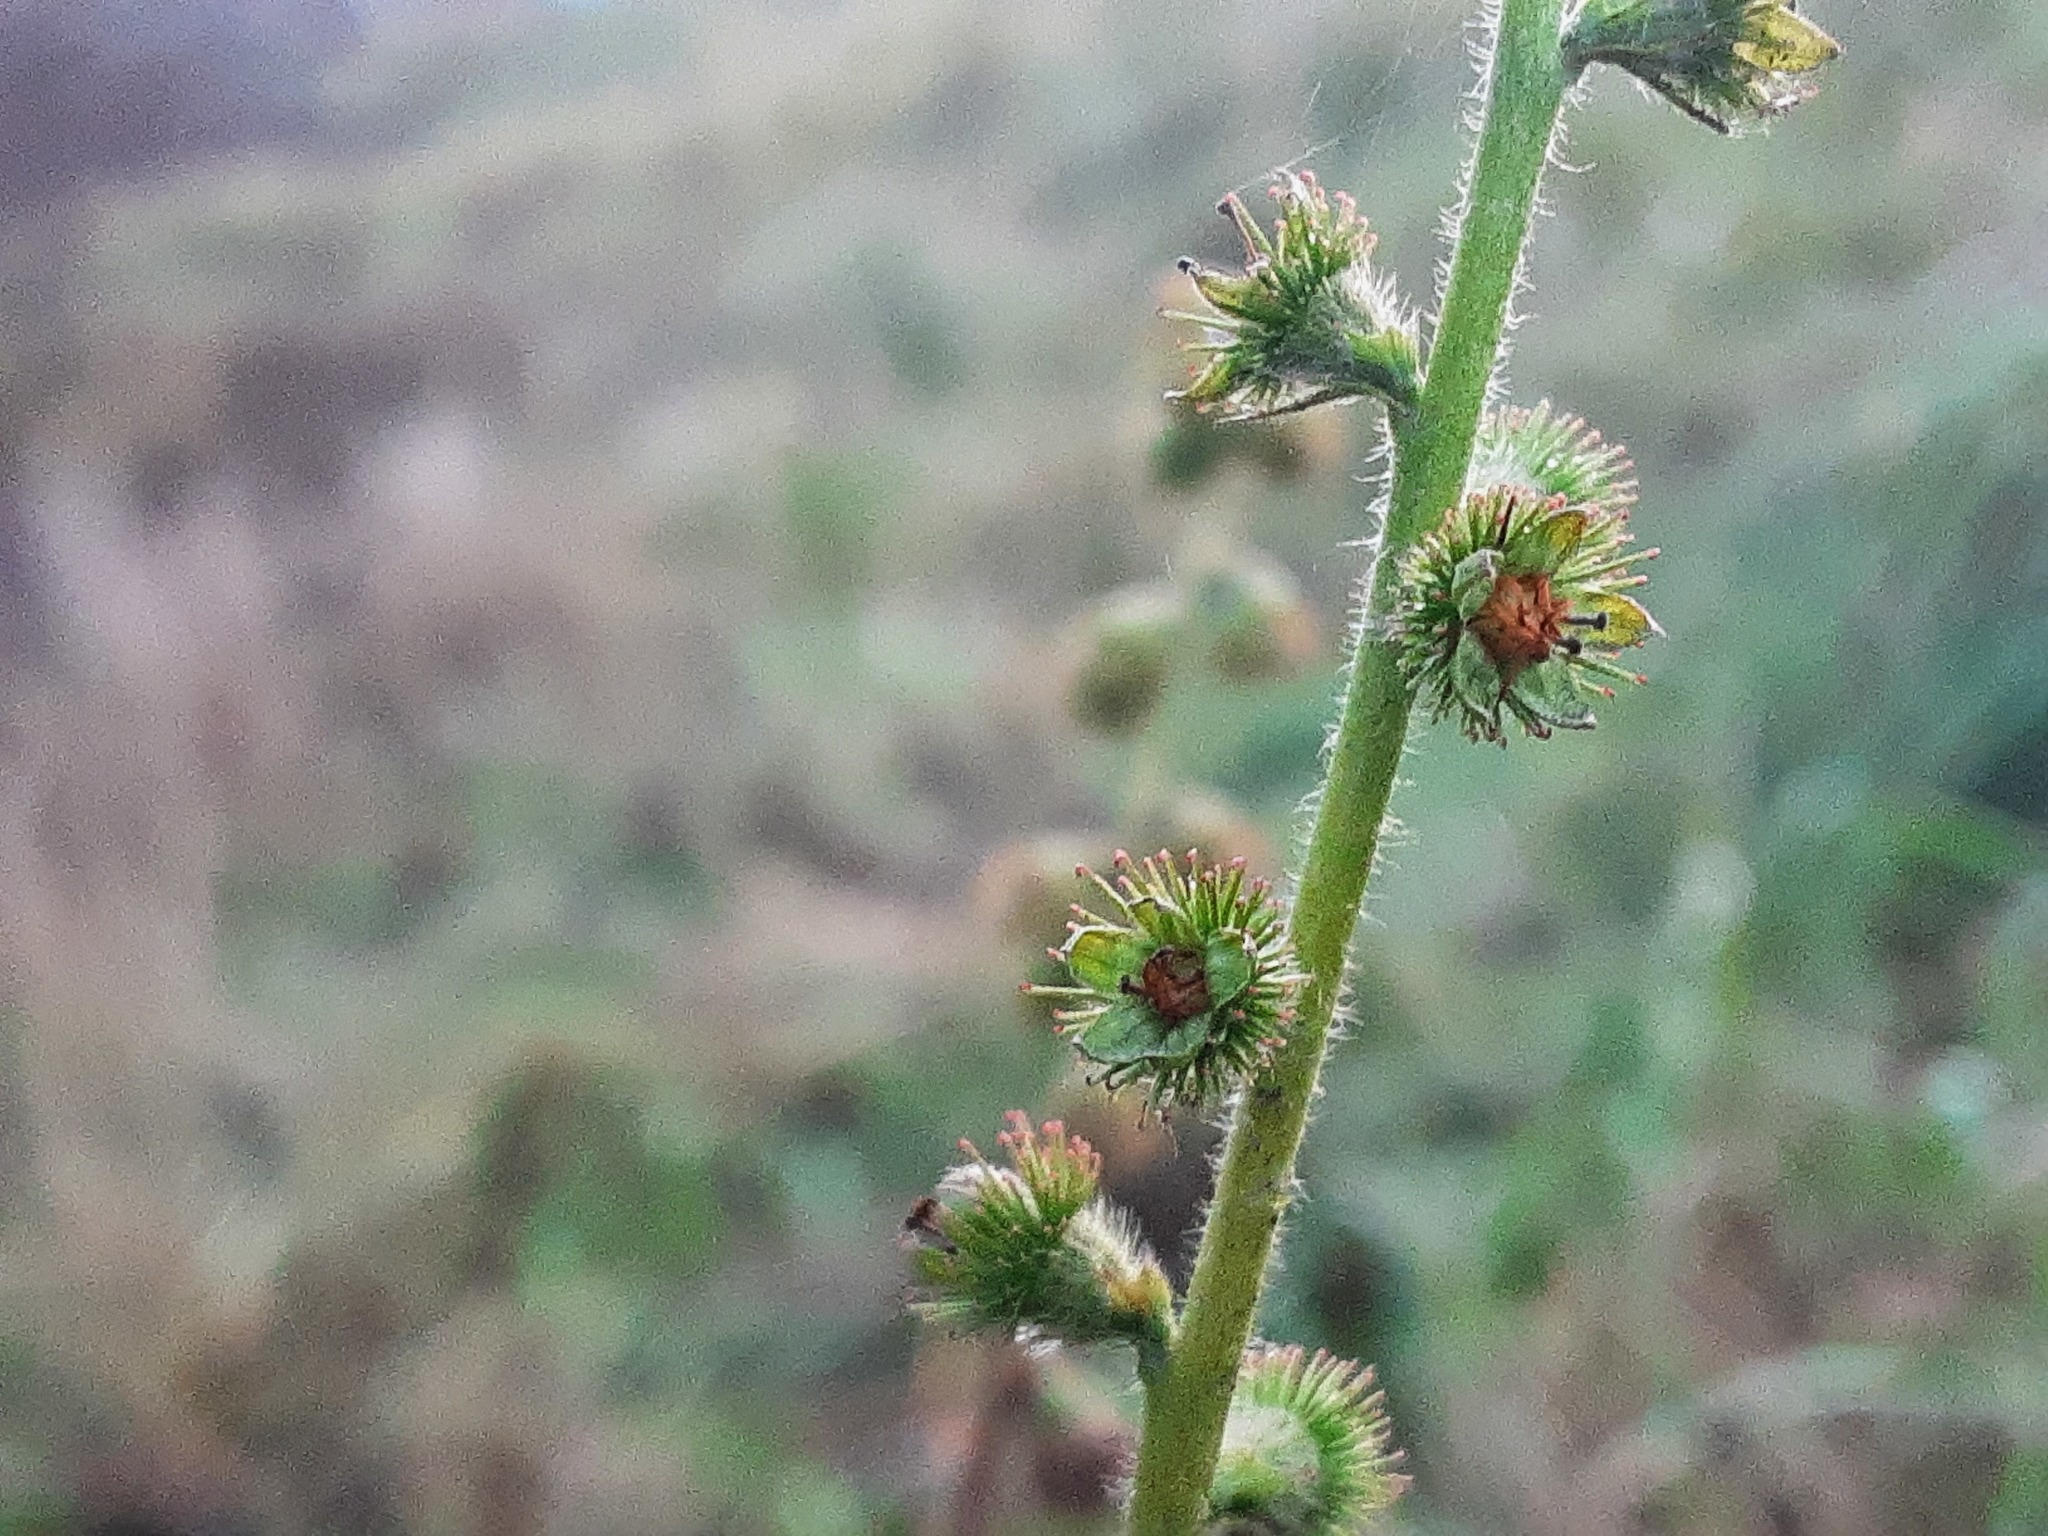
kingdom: Plantae
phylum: Tracheophyta
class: Magnoliopsida
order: Rosales
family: Rosaceae
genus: Agrimonia
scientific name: Agrimonia eupatoria
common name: Agrimony
